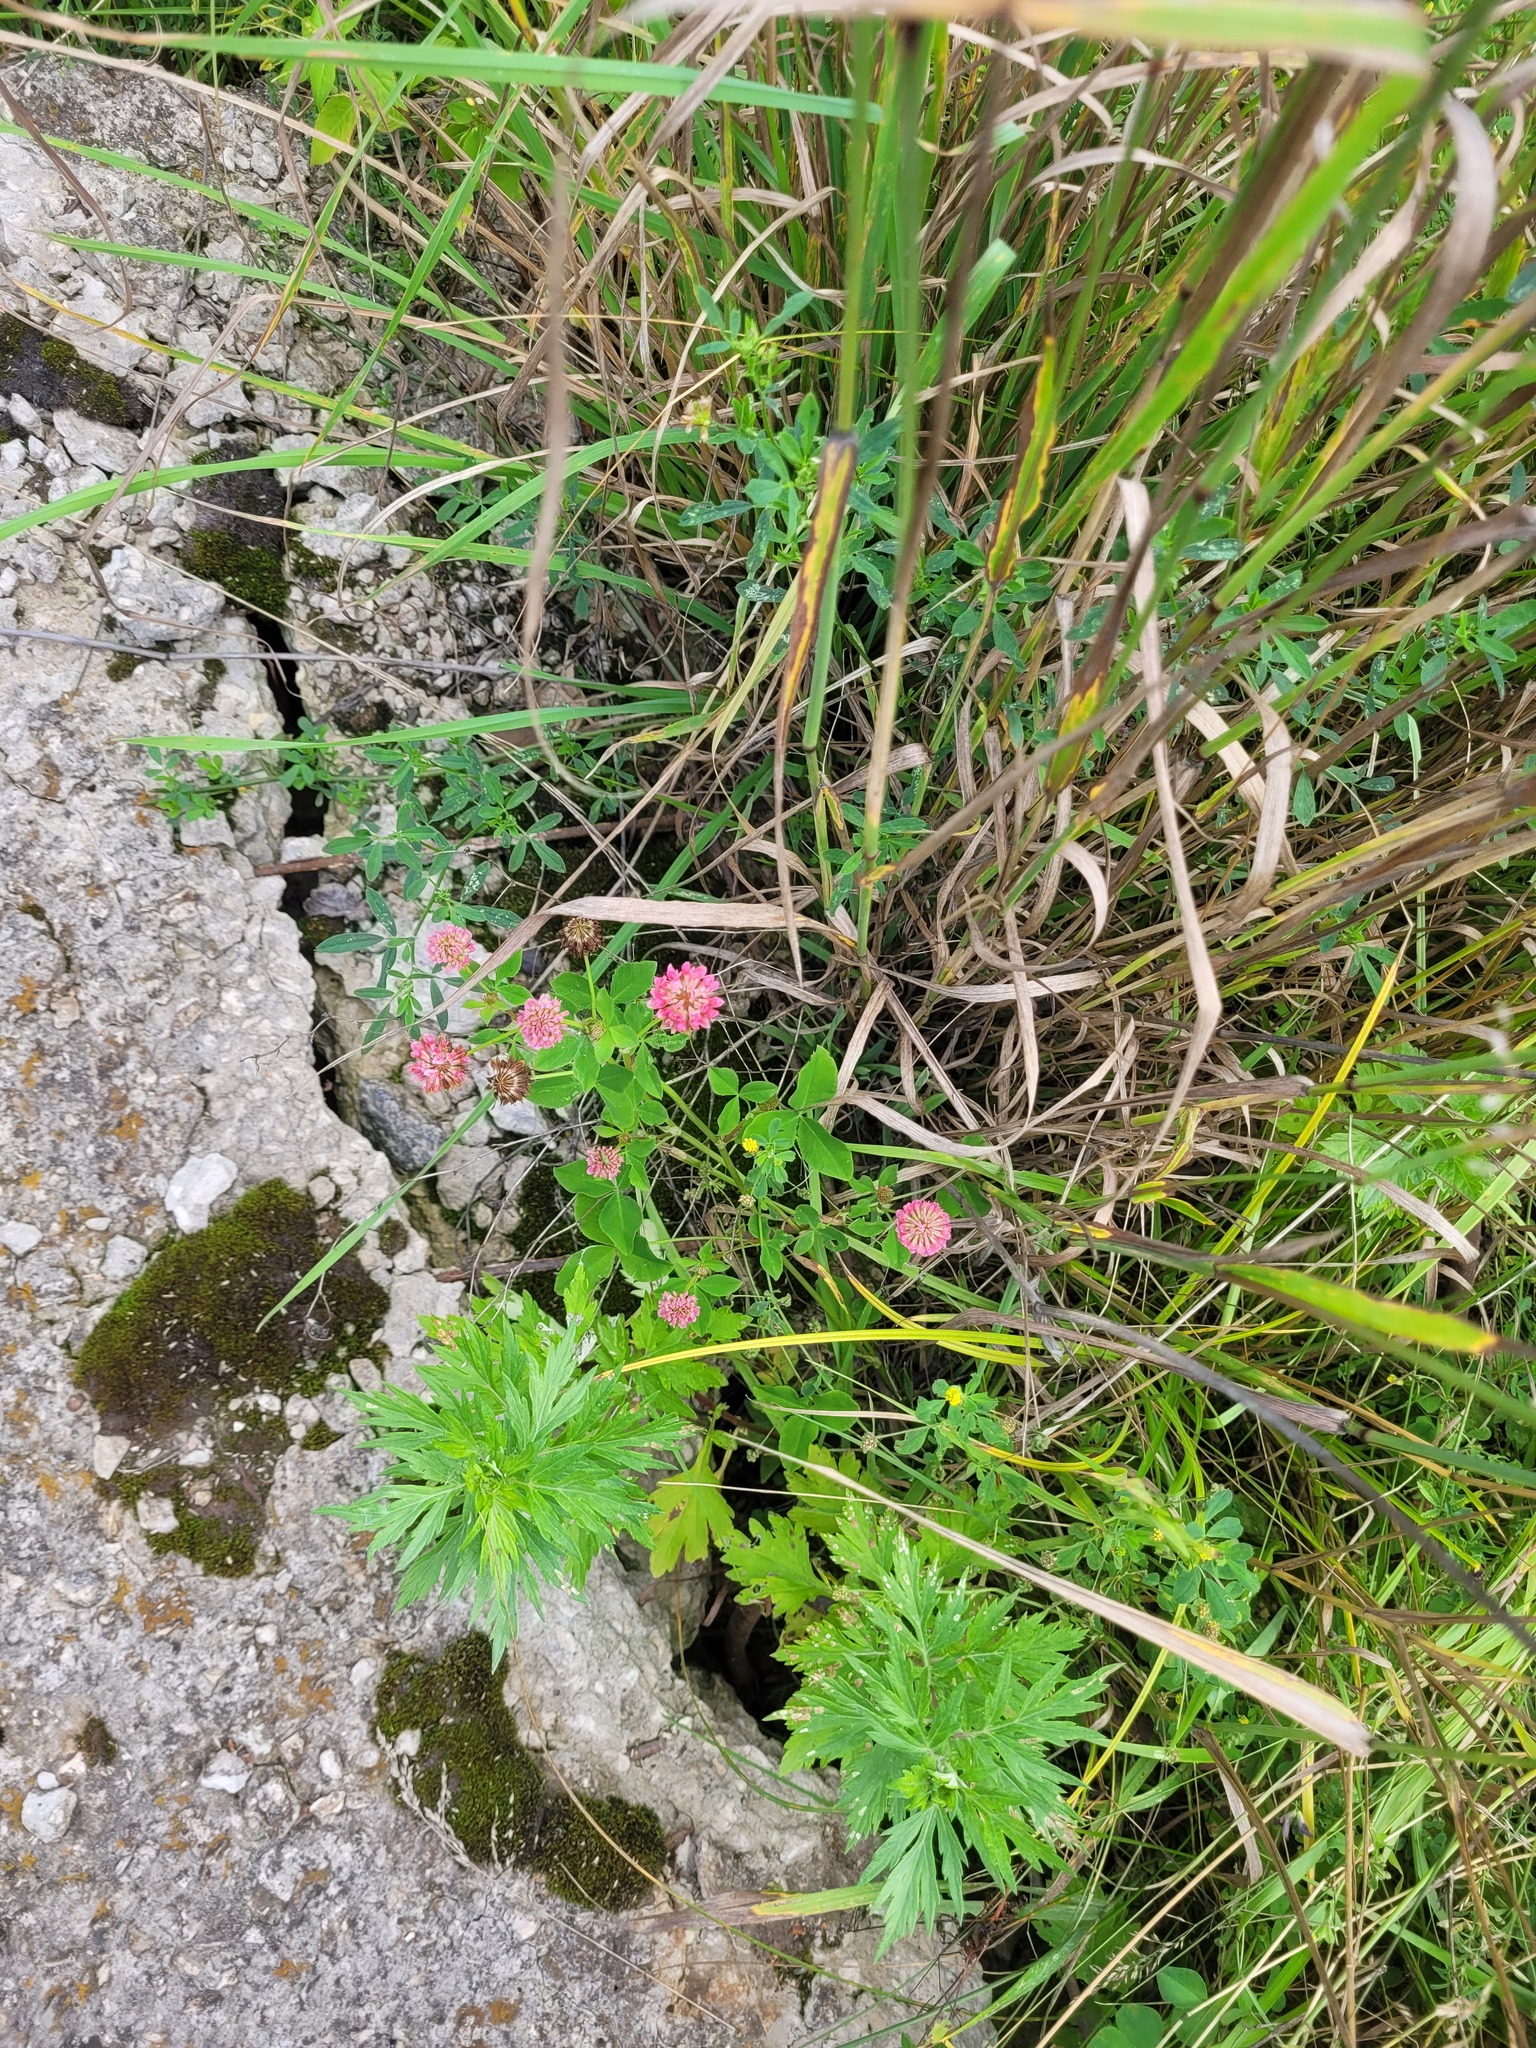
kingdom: Plantae
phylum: Tracheophyta
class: Magnoliopsida
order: Fabales
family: Fabaceae
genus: Trifolium
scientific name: Trifolium hybridum
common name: Alsike clover
